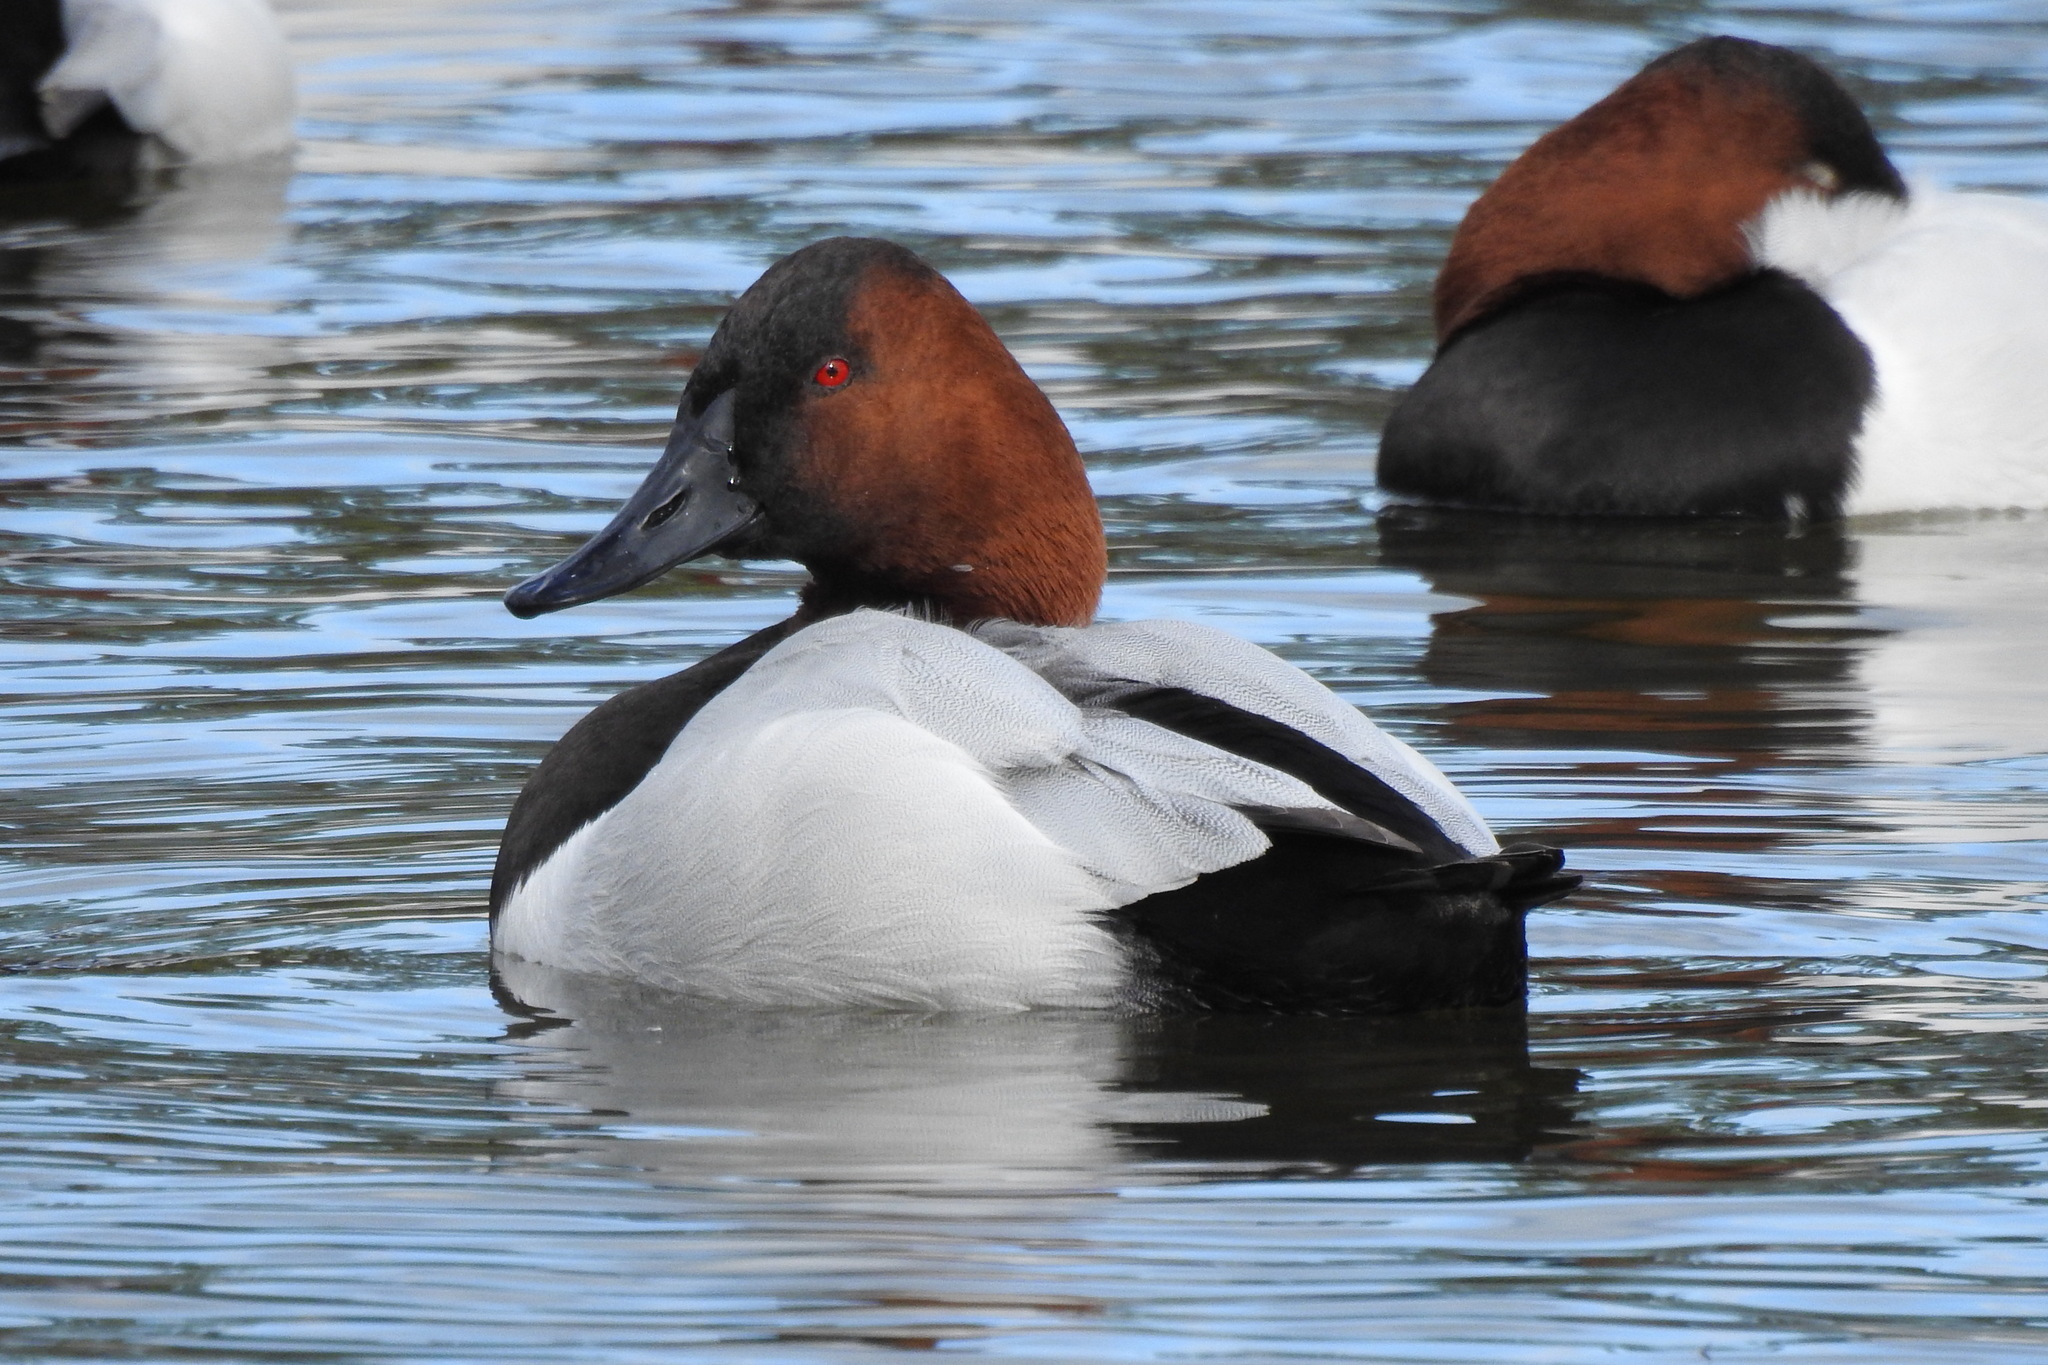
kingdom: Animalia
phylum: Chordata
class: Aves
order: Anseriformes
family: Anatidae
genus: Aythya
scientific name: Aythya valisineria
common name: Canvasback
